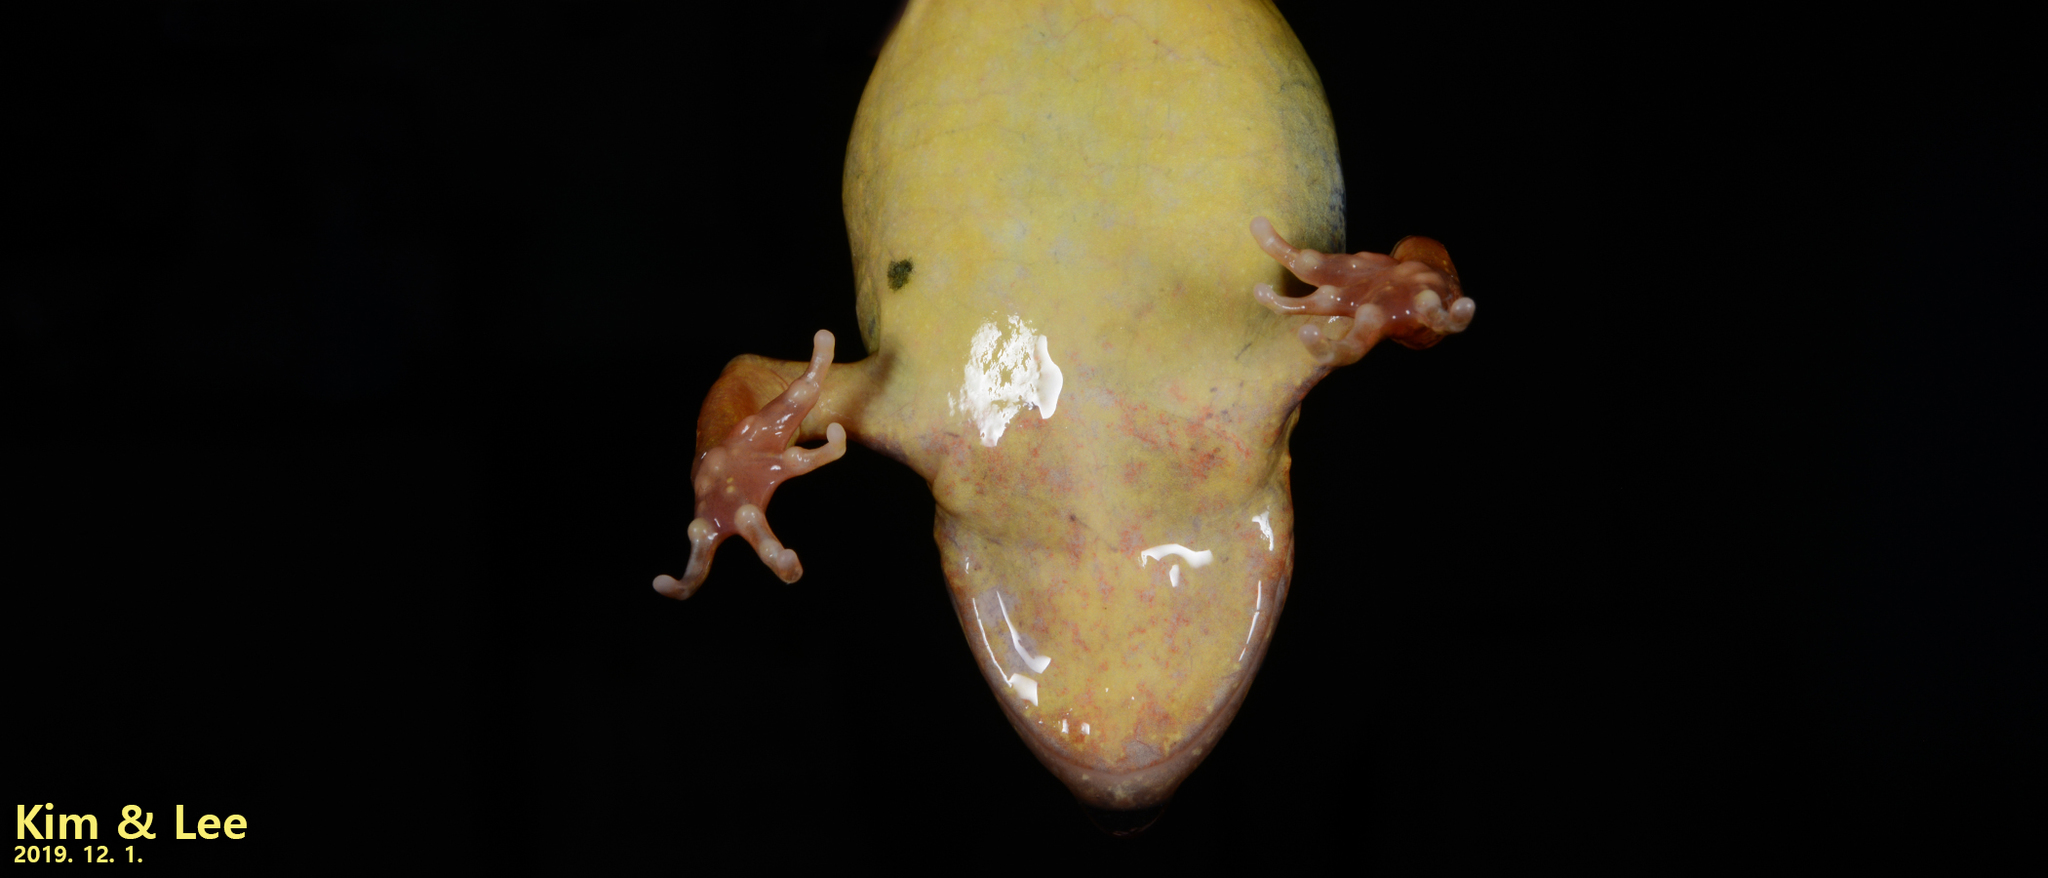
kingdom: Animalia
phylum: Chordata
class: Amphibia
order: Anura
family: Ranidae
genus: Rana
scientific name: Rana huanrenensis
